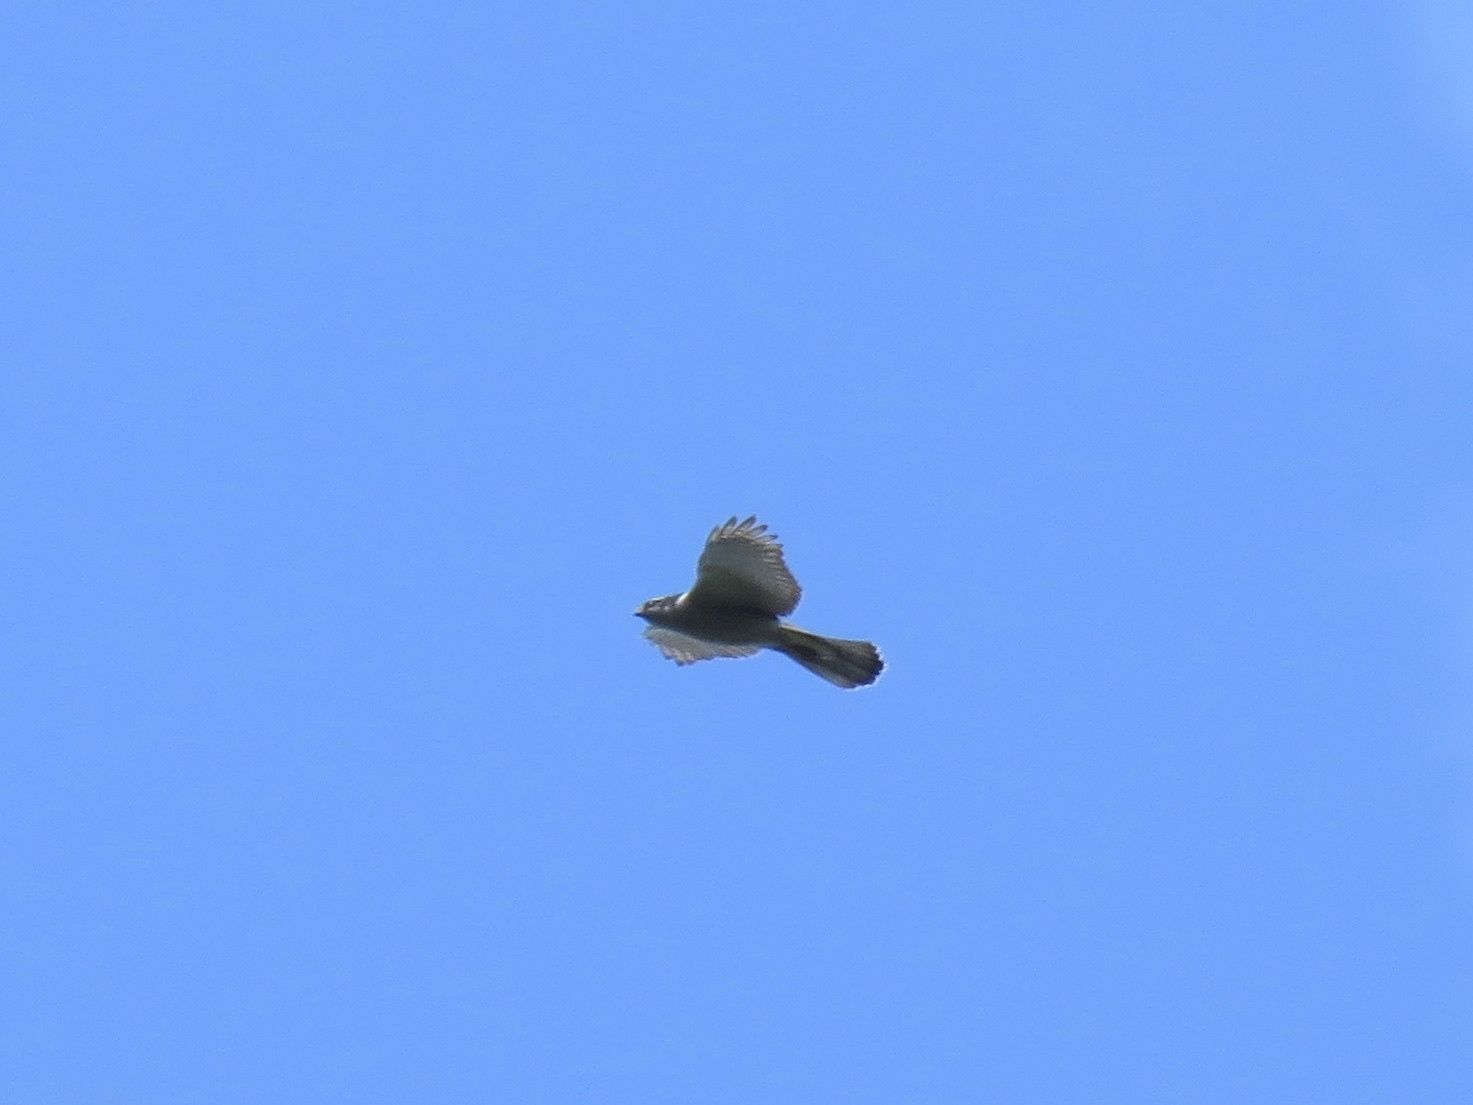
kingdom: Animalia
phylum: Chordata
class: Aves
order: Accipitriformes
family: Accipitridae
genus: Accipiter
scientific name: Accipiter gentilis
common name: Northern goshawk
